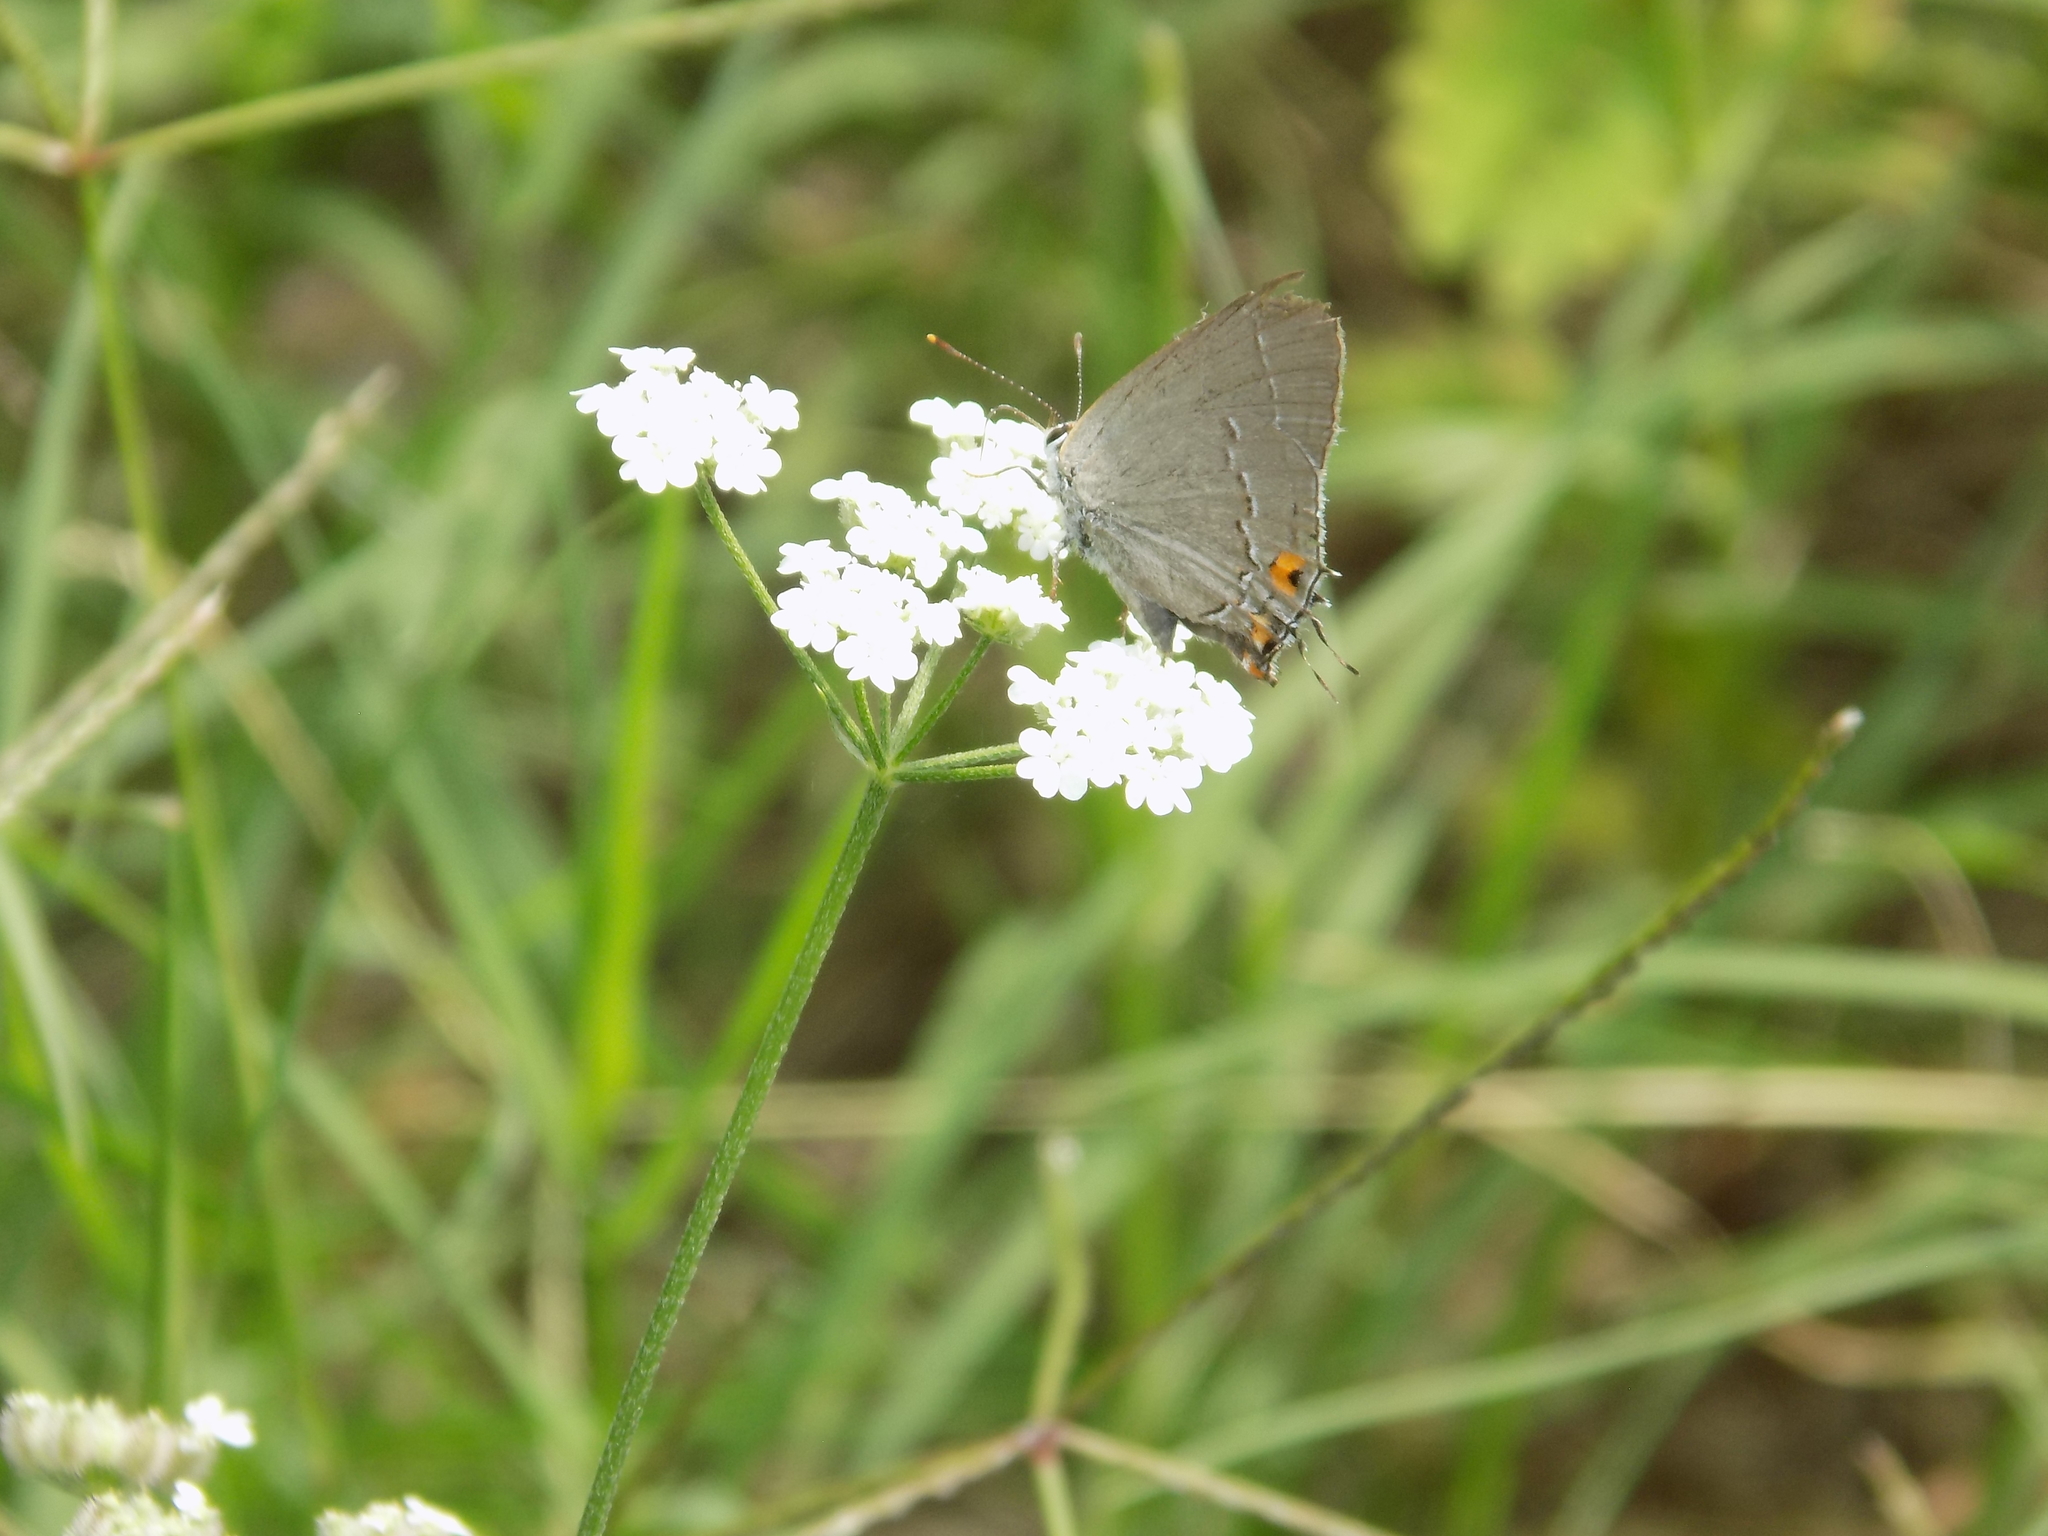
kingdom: Animalia
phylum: Arthropoda
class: Insecta
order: Lepidoptera
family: Lycaenidae
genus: Strymon
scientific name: Strymon melinus
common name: Gray hairstreak
